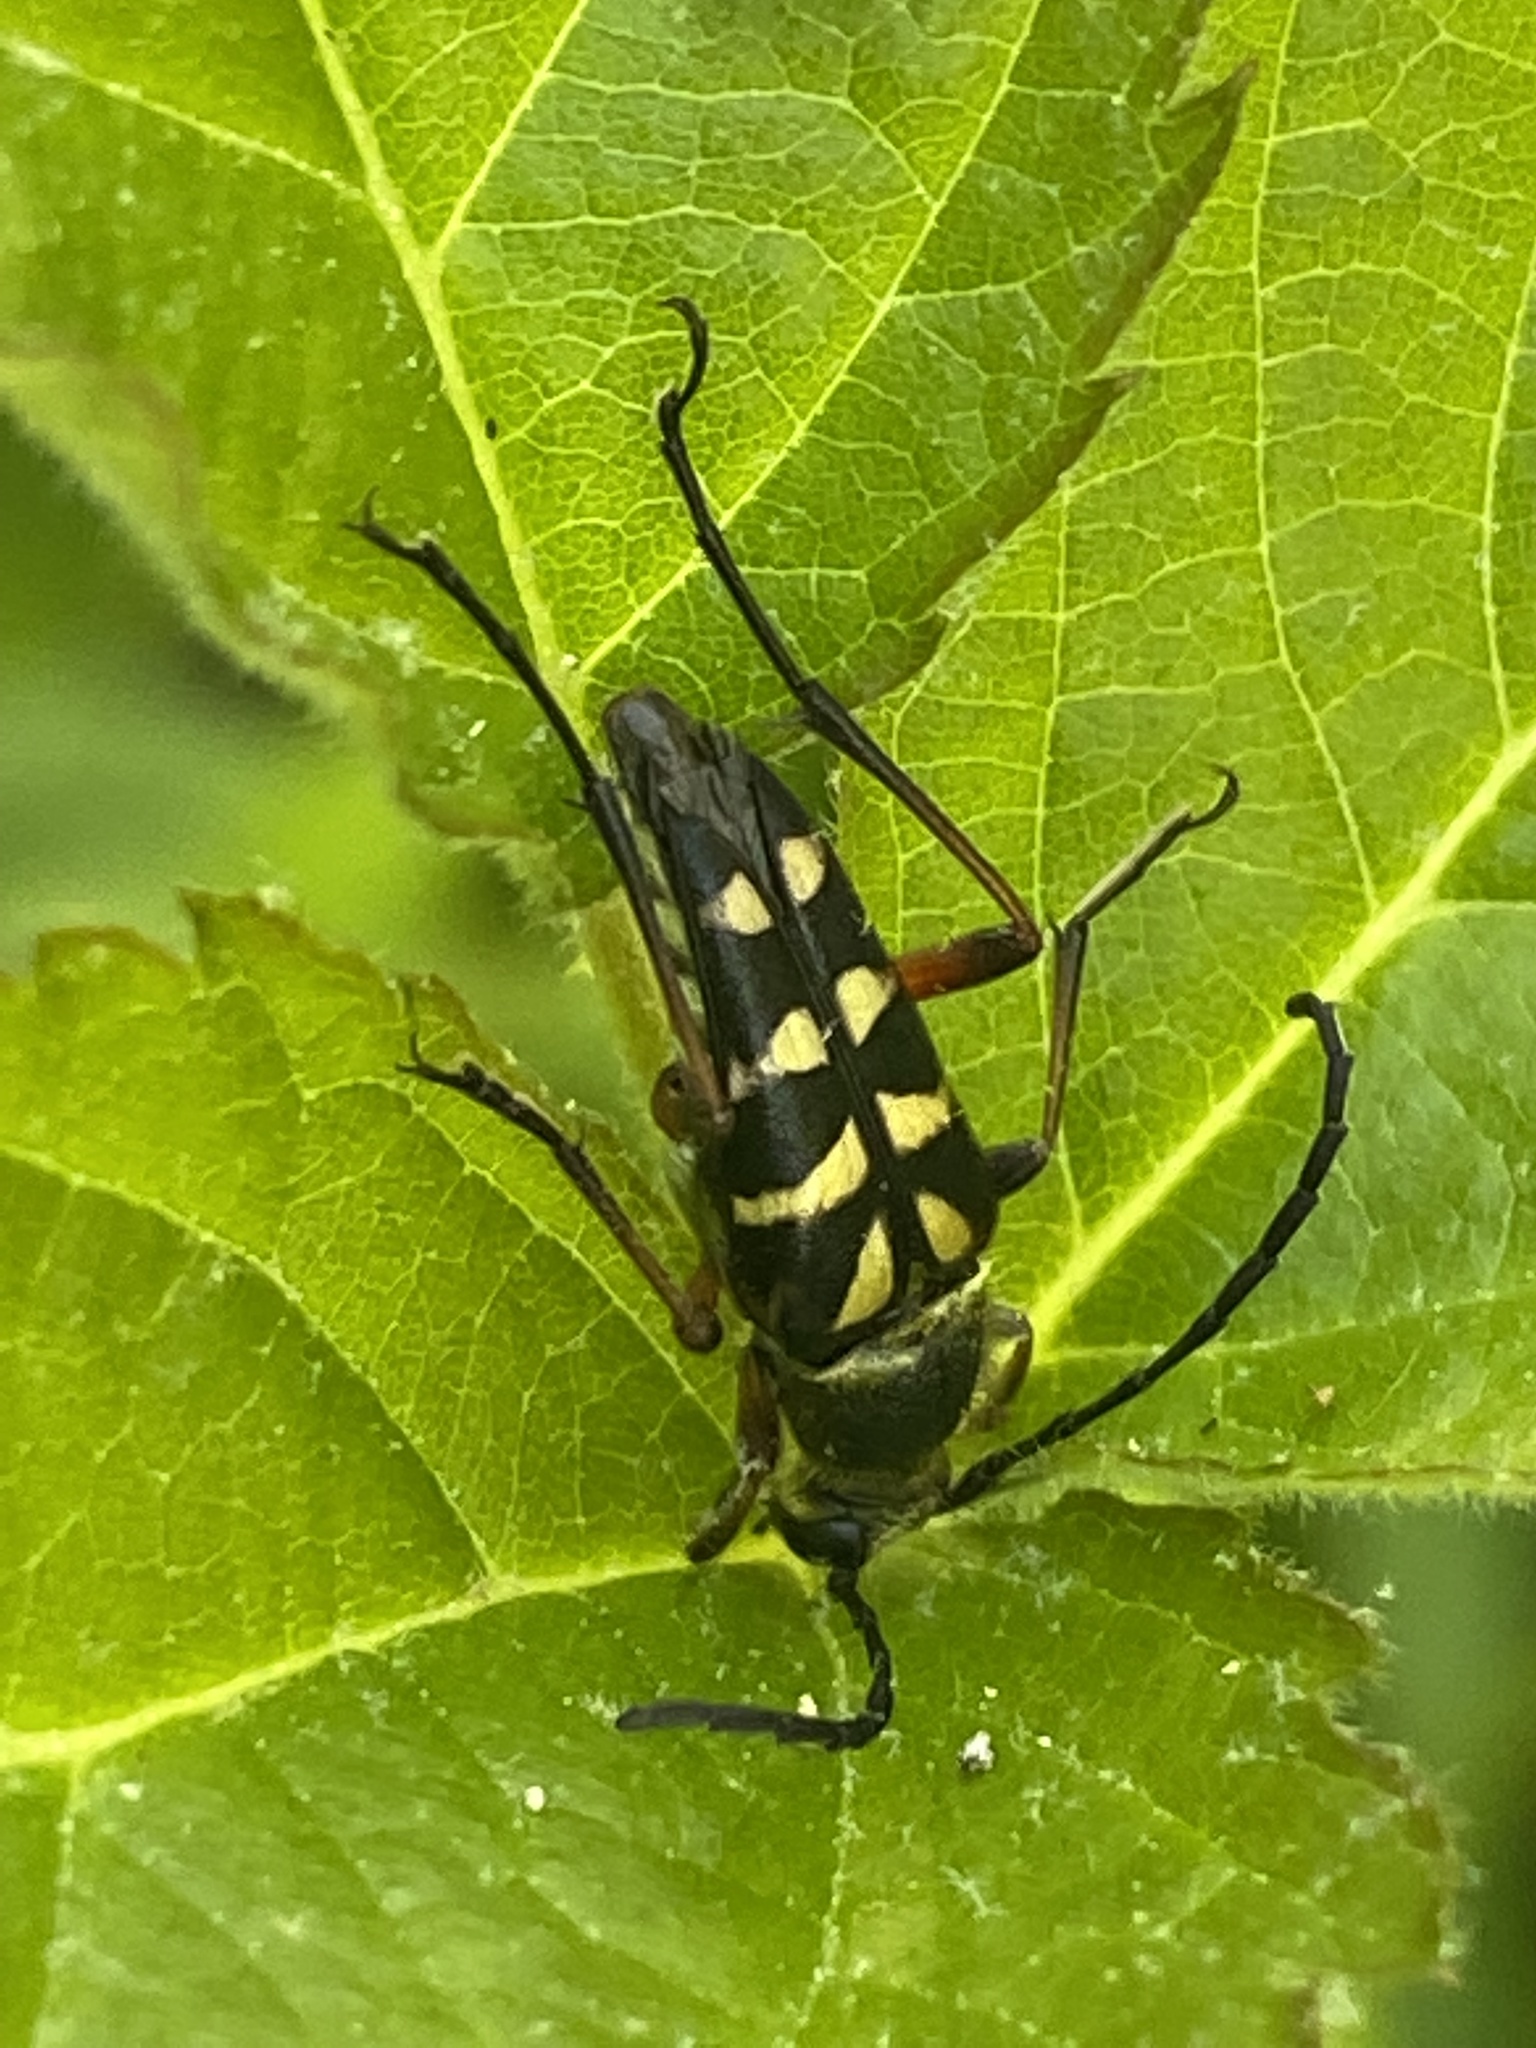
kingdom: Animalia
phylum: Arthropoda
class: Insecta
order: Coleoptera
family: Cerambycidae
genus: Typocerus
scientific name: Typocerus zebra
